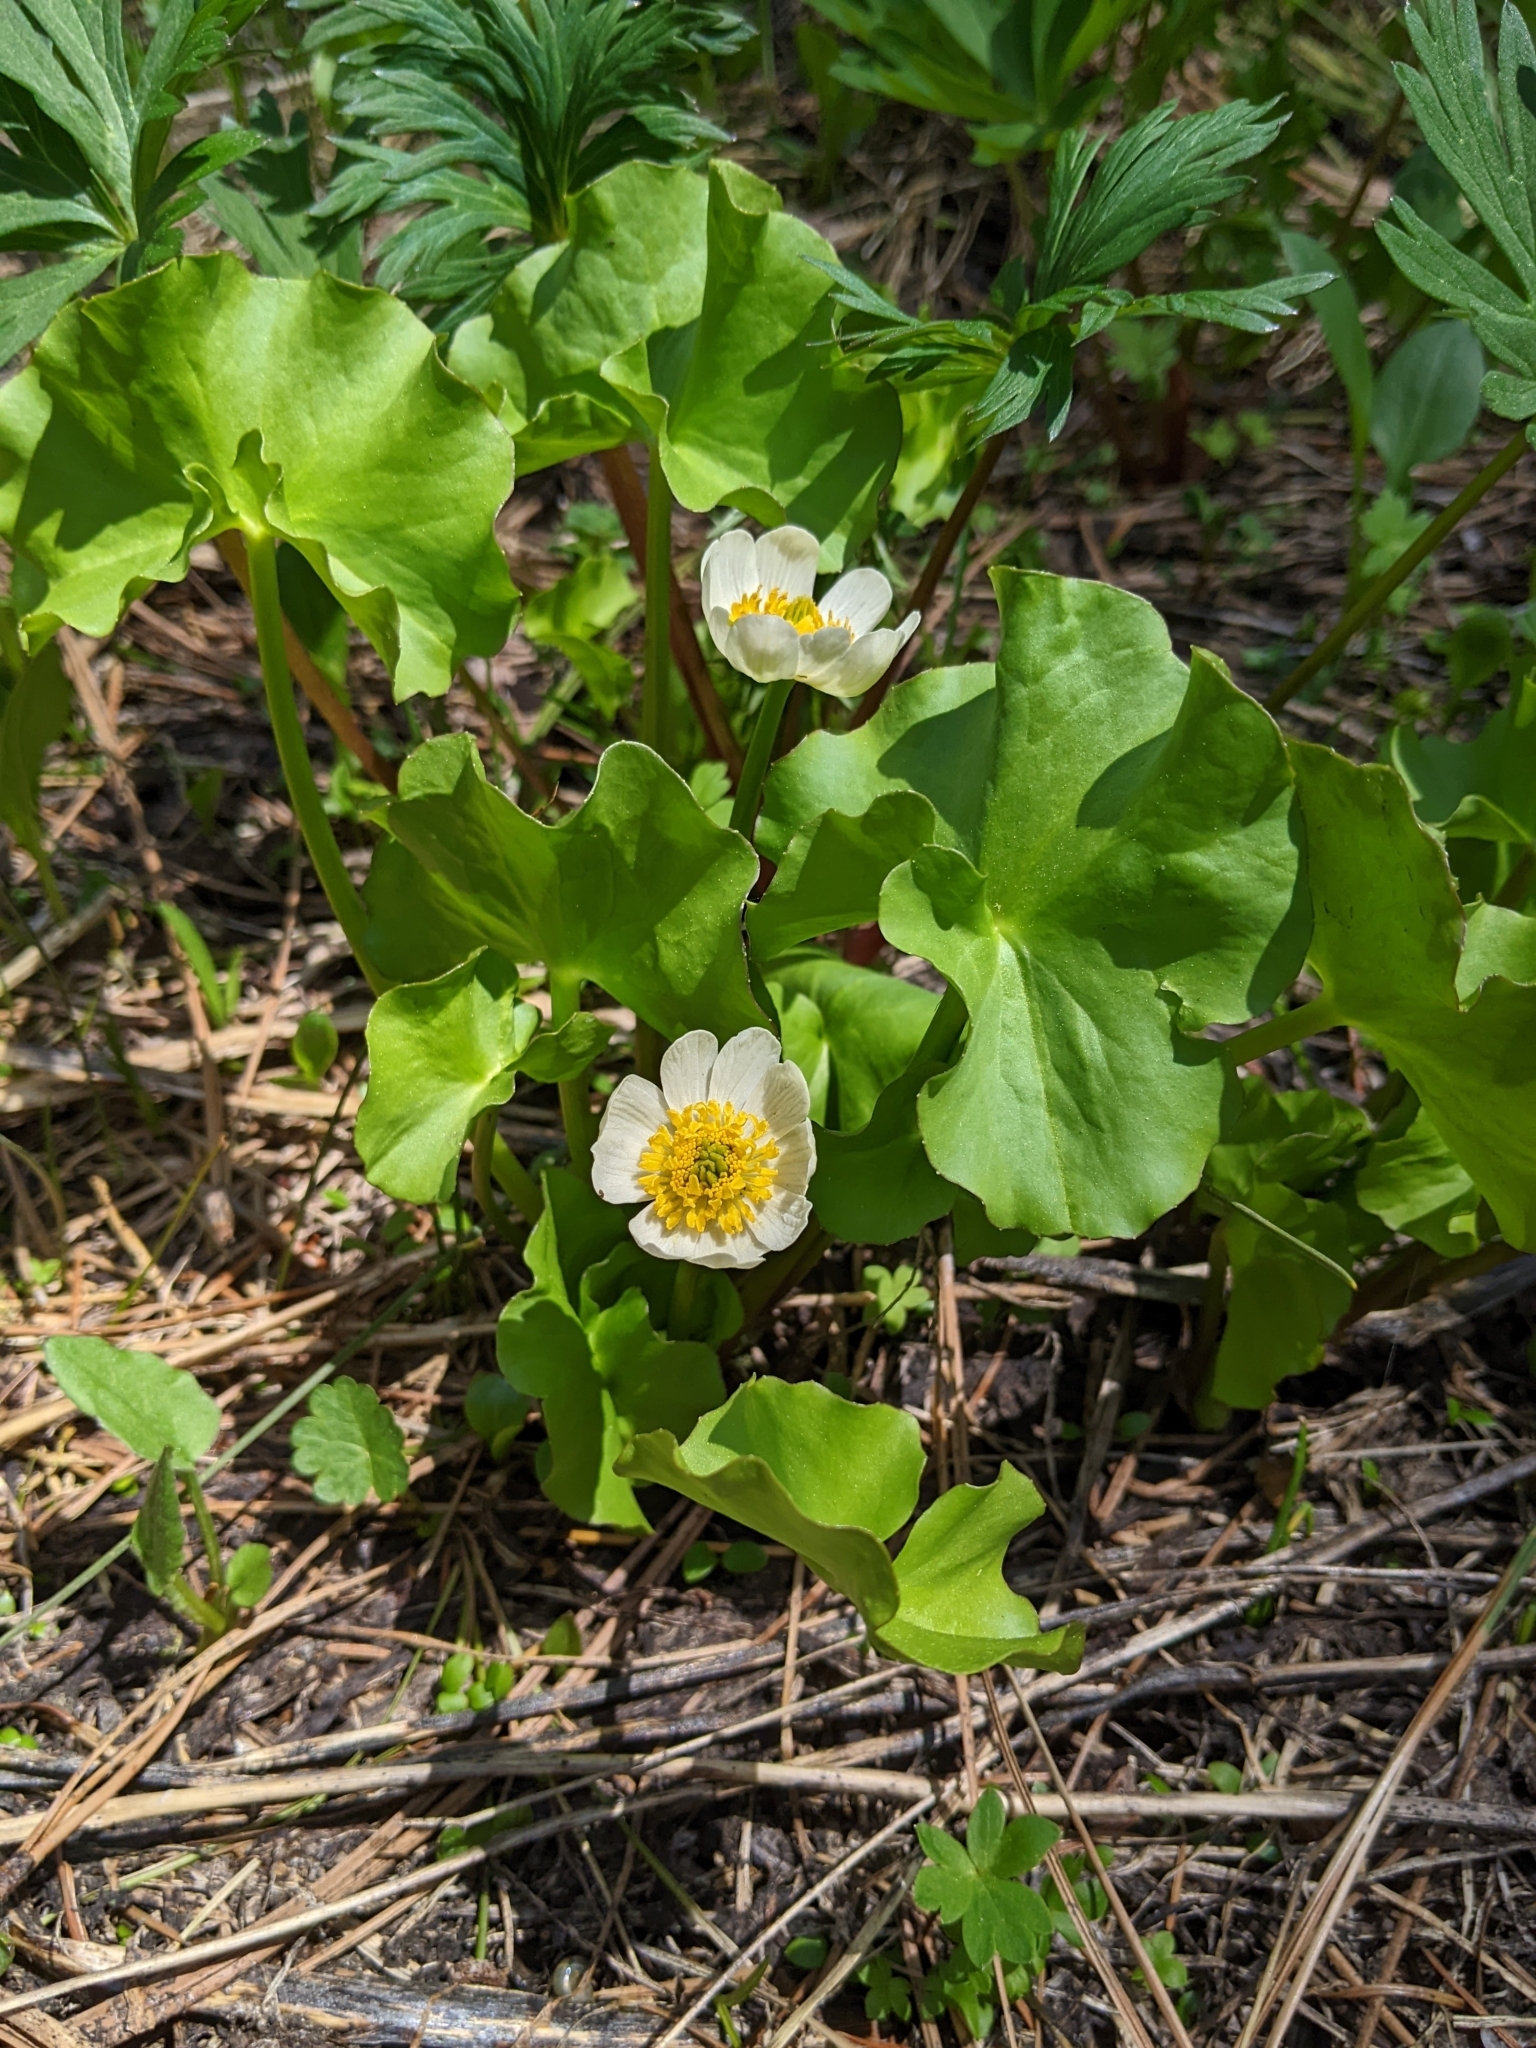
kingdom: Plantae
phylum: Tracheophyta
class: Magnoliopsida
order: Ranunculales
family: Ranunculaceae
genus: Caltha
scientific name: Caltha leptosepala
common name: Elkslip
